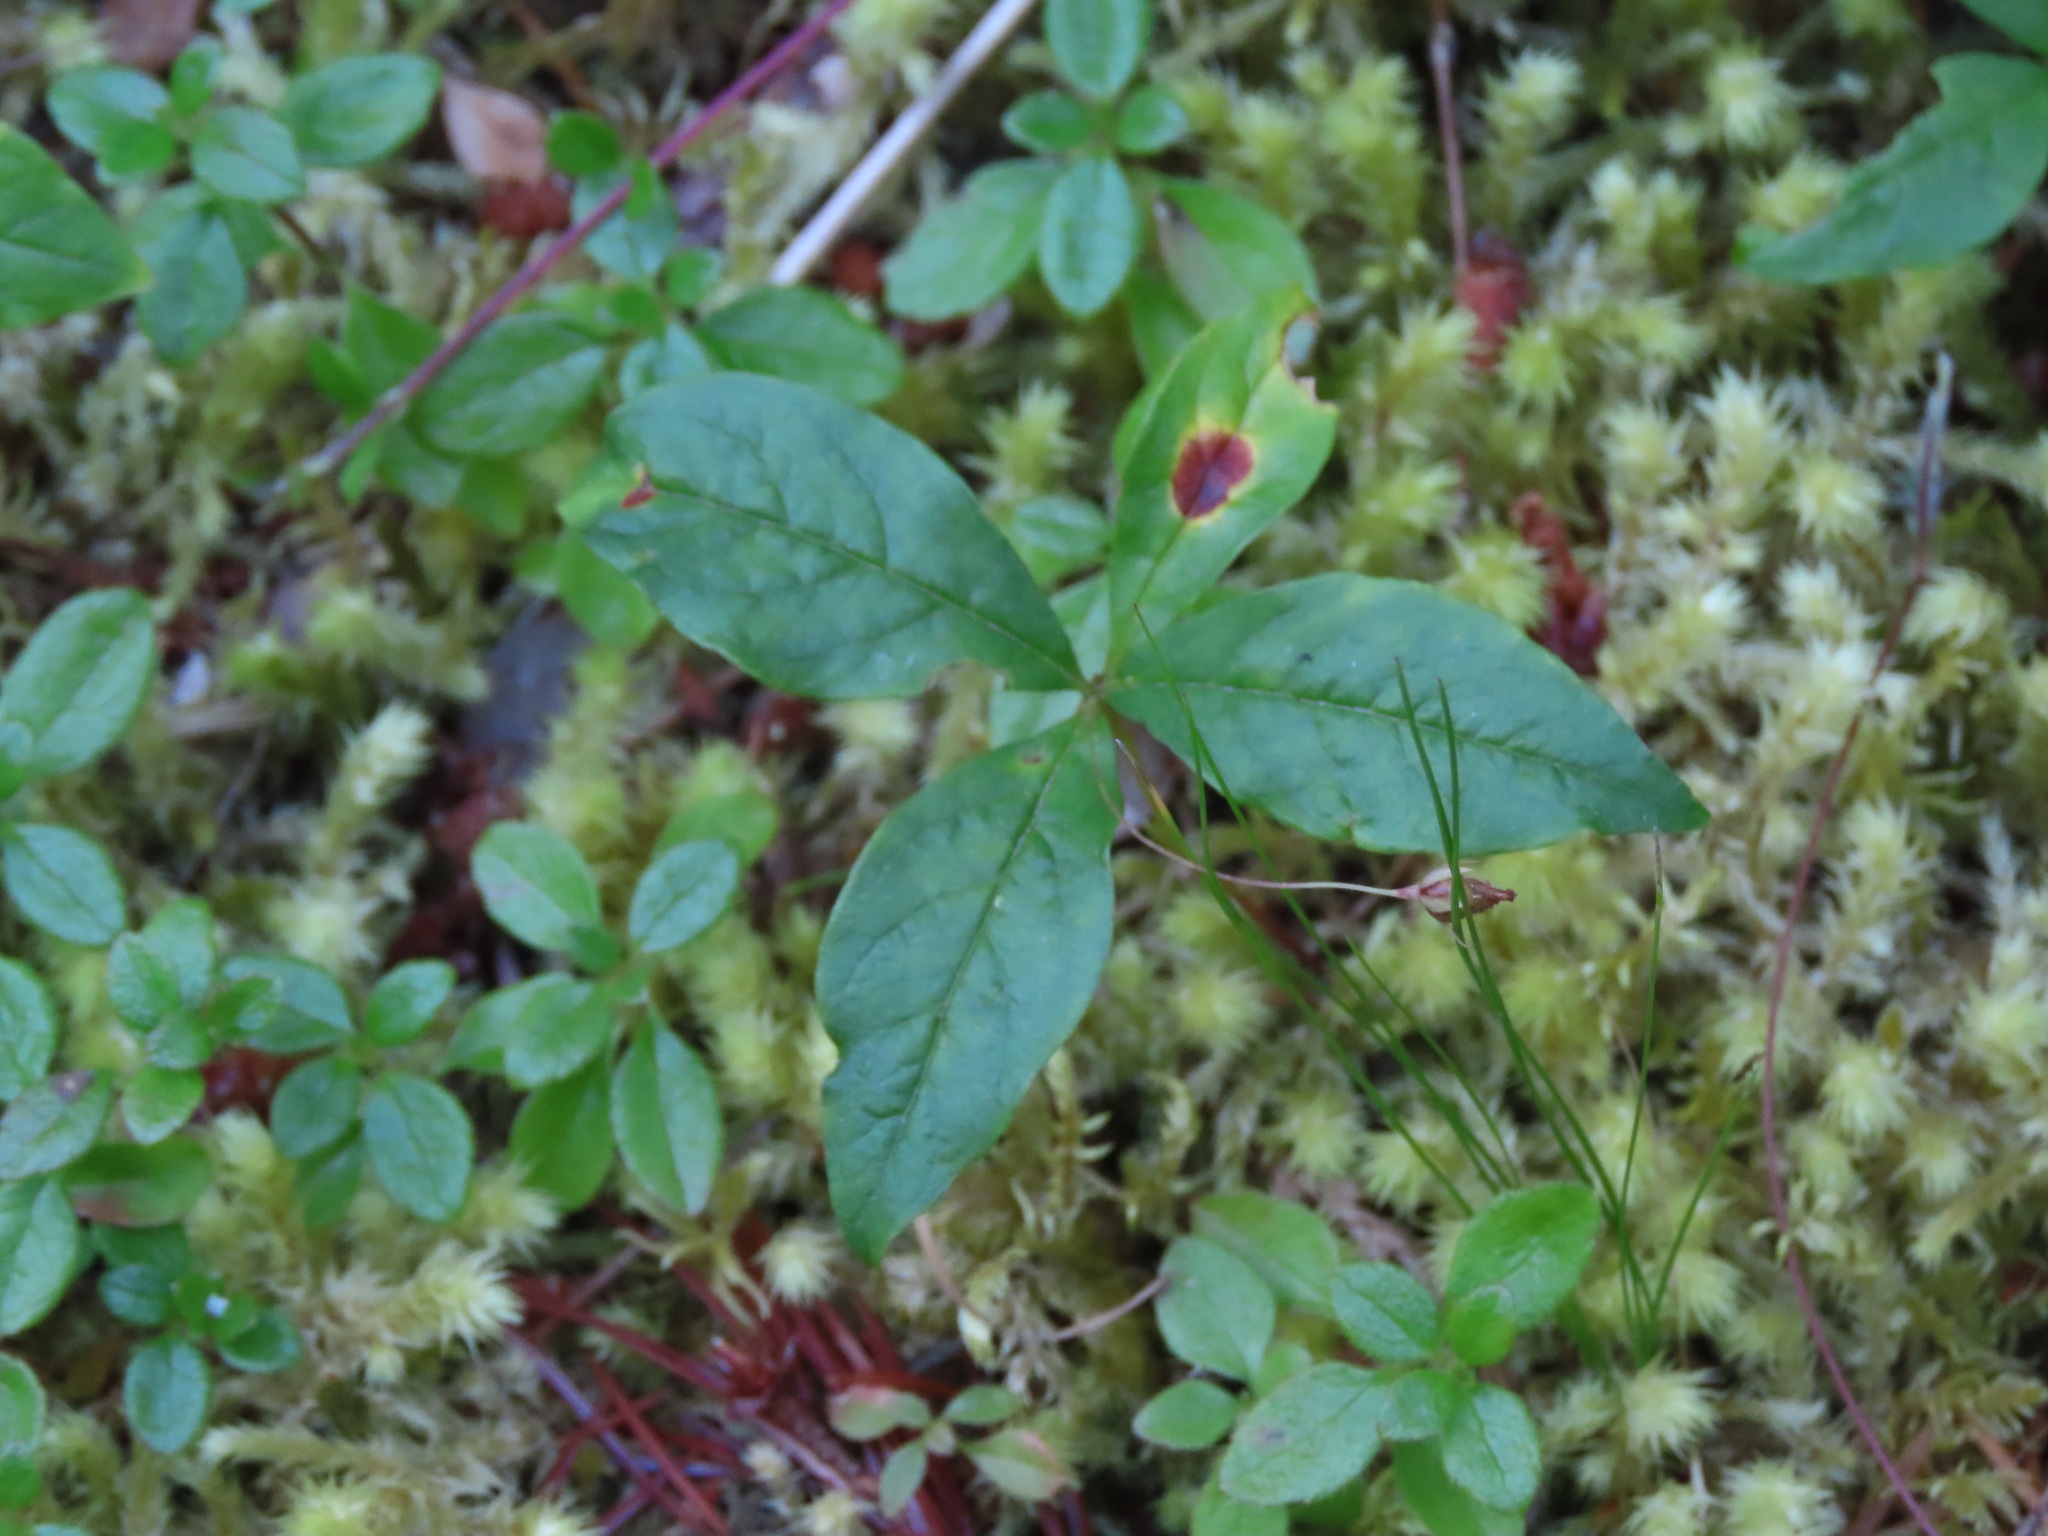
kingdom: Plantae
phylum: Tracheophyta
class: Magnoliopsida
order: Ericales
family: Primulaceae
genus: Lysimachia
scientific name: Lysimachia latifolia
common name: Pacific starflower
